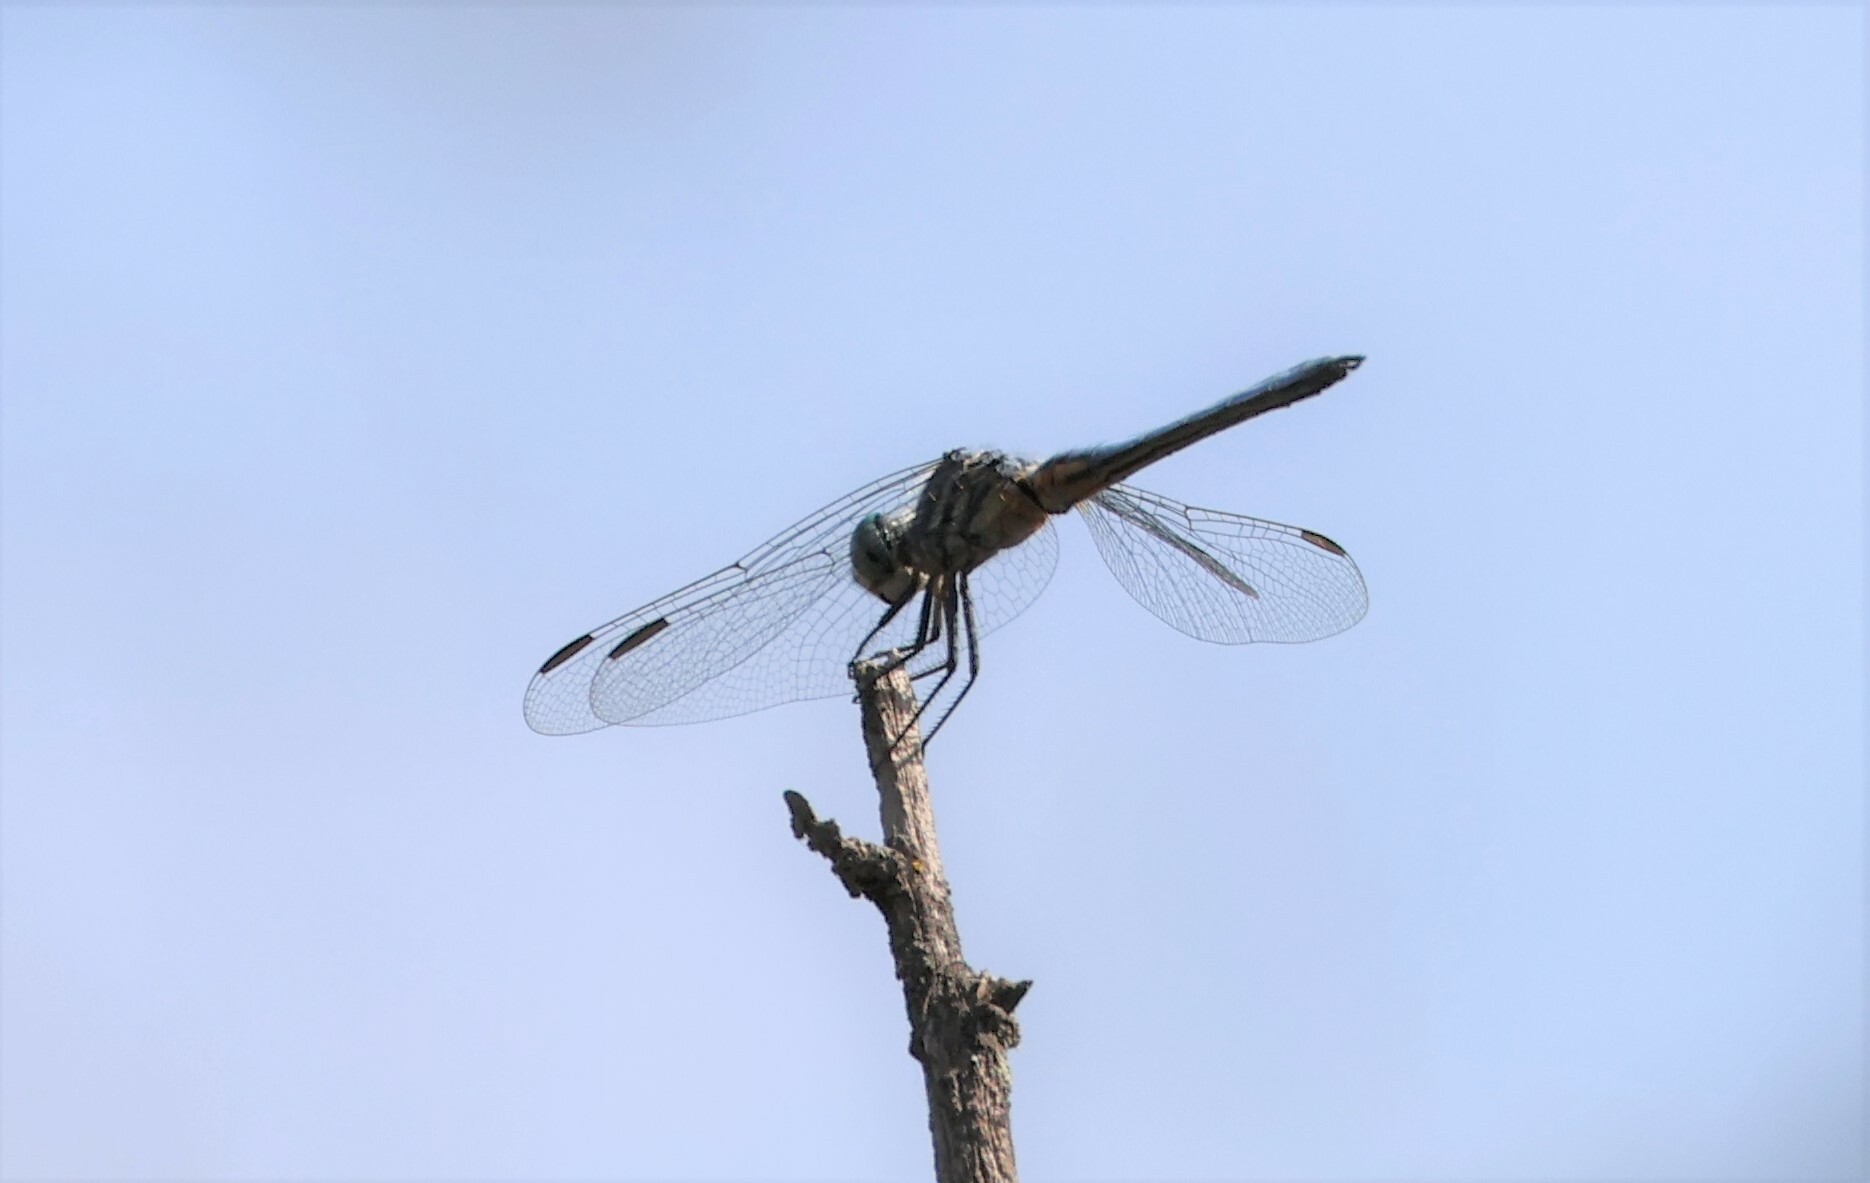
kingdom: Animalia
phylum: Arthropoda
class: Insecta
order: Odonata
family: Libellulidae
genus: Pachydiplax
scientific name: Pachydiplax longipennis
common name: Blue dasher
